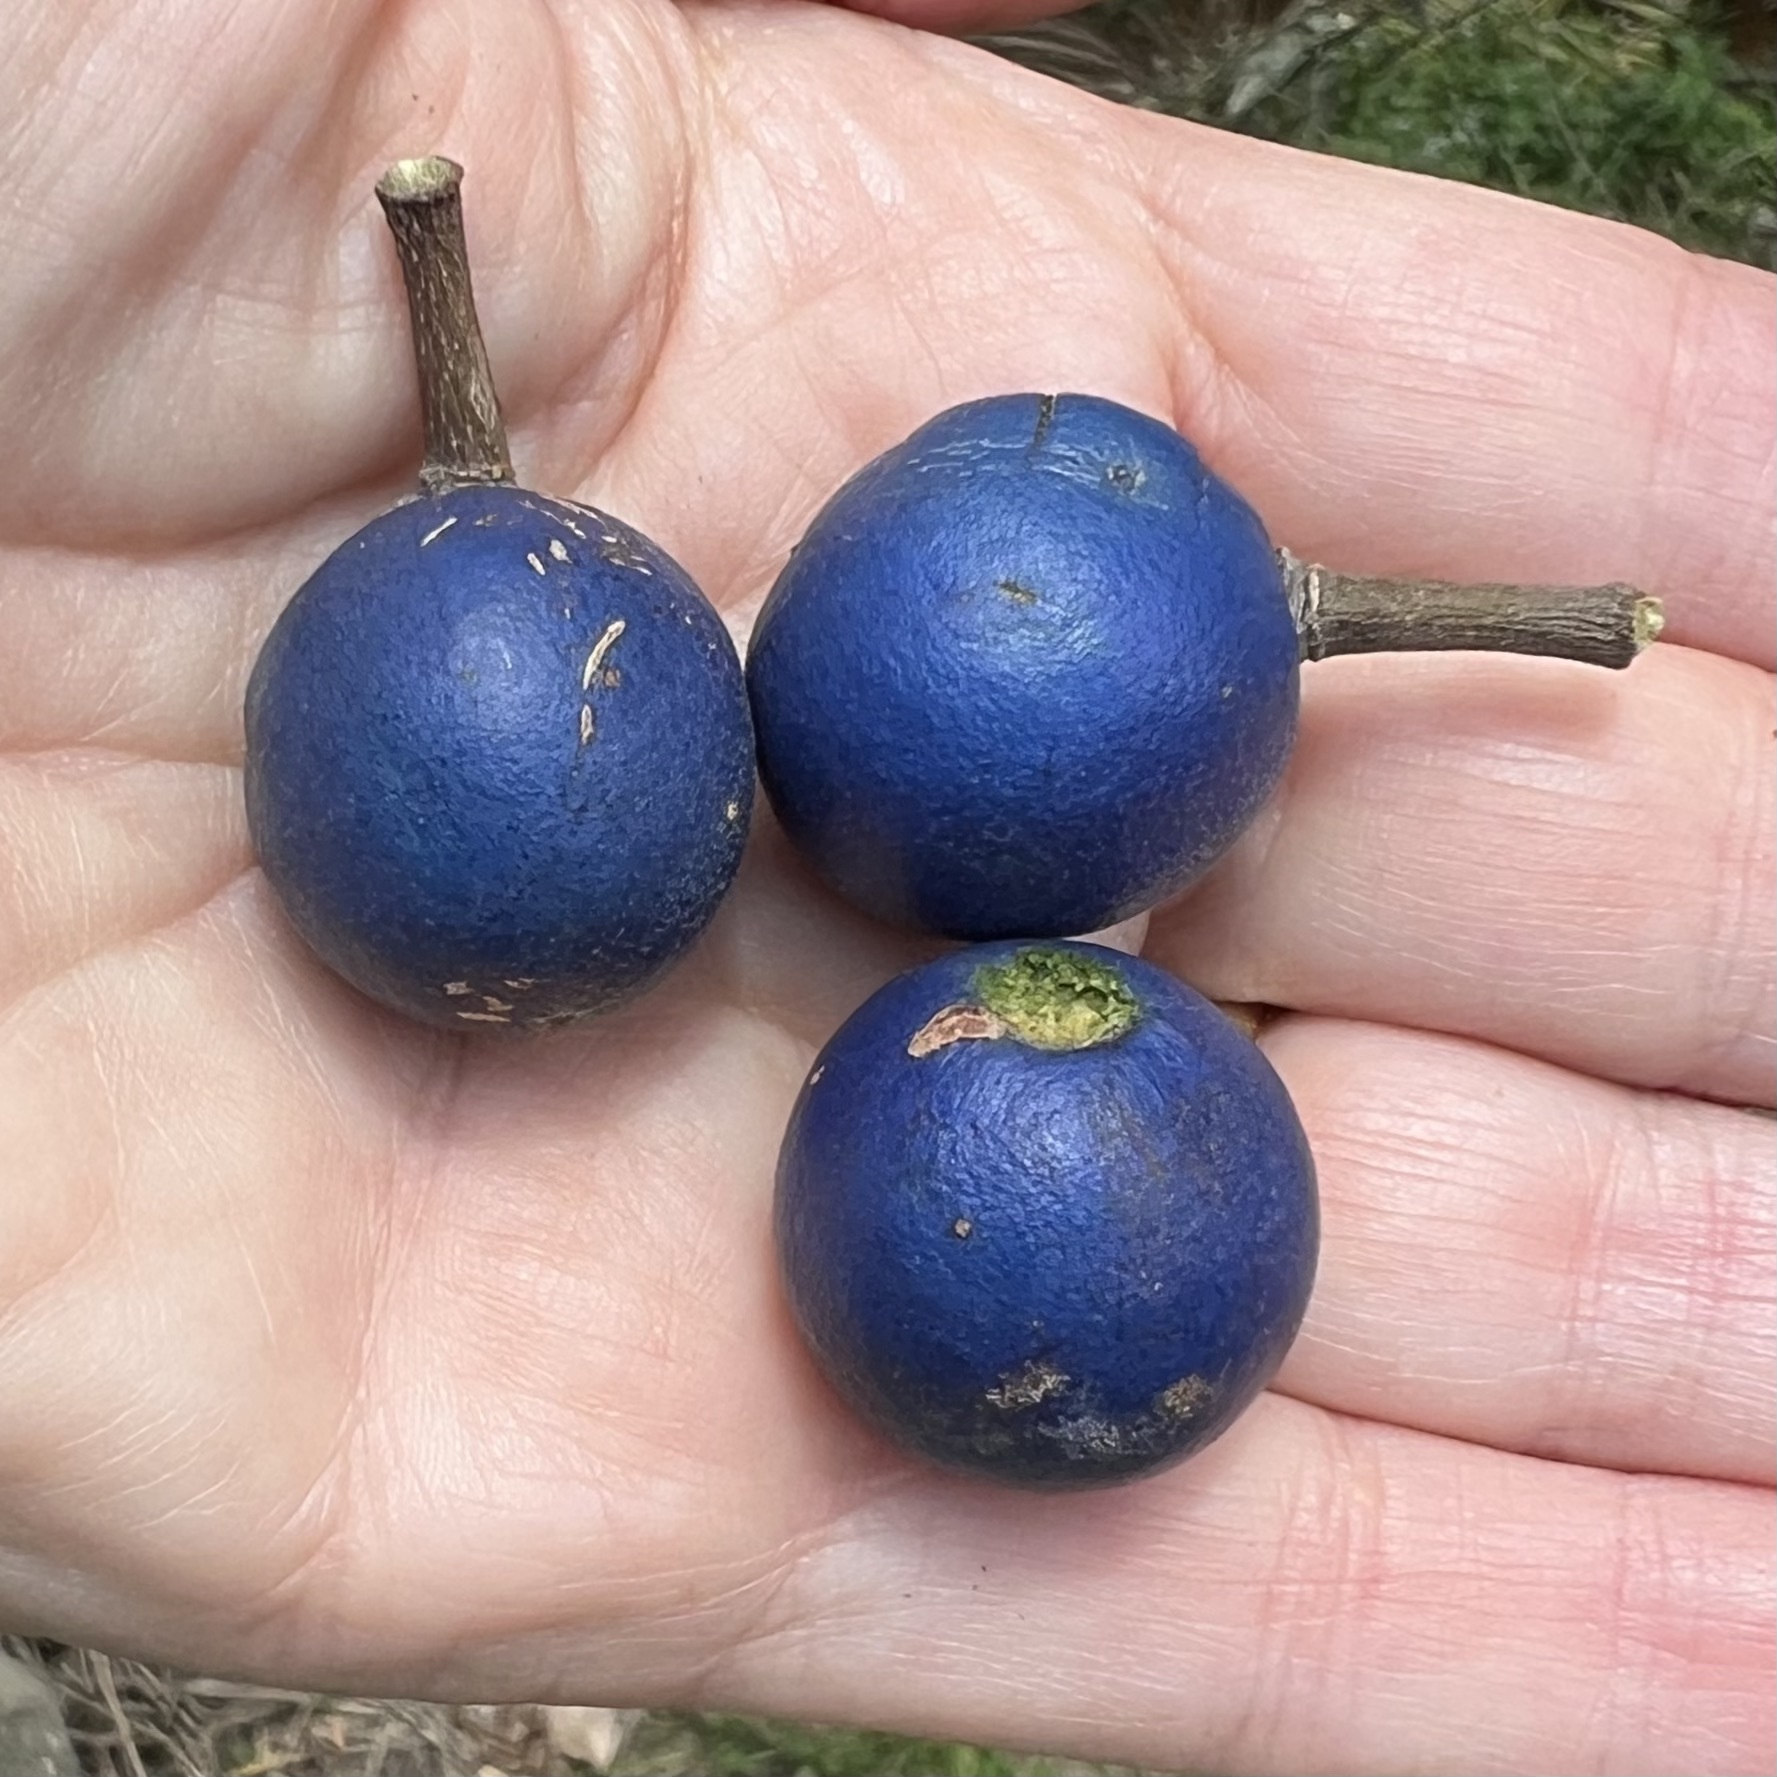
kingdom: Plantae
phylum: Tracheophyta
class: Magnoliopsida
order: Oxalidales
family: Elaeocarpaceae
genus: Elaeocarpus
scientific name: Elaeocarpus angustifolius
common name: Blue marble tree
